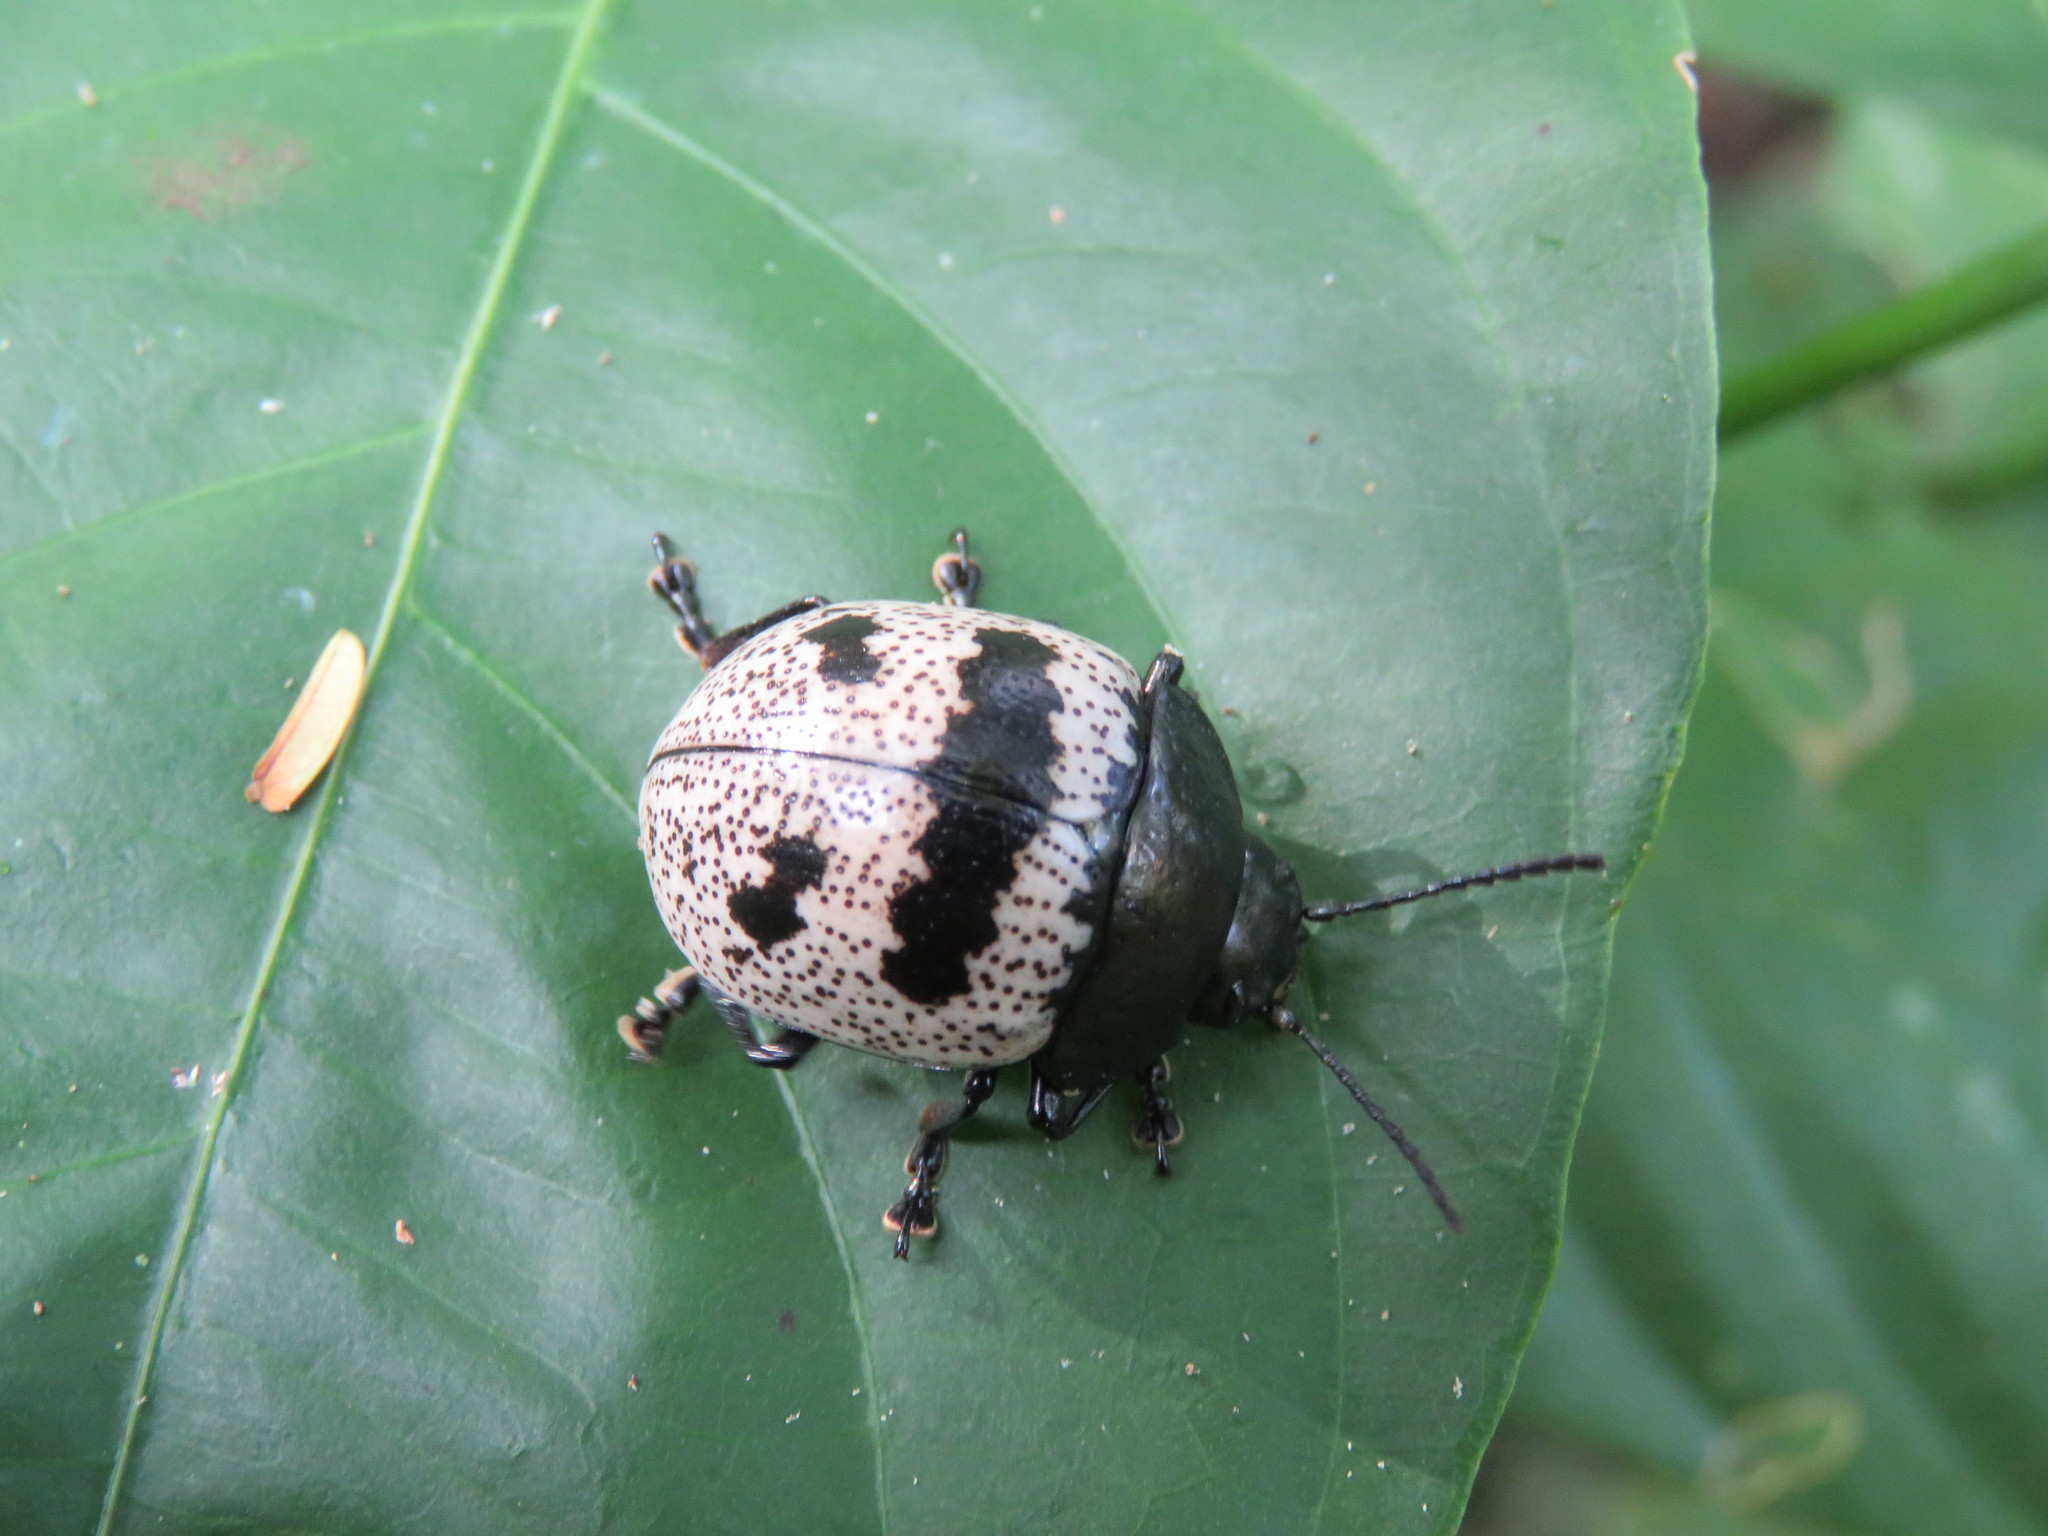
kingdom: Animalia
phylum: Arthropoda
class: Insecta
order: Coleoptera
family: Chrysomelidae
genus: Platyphora
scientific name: Platyphora petulans
